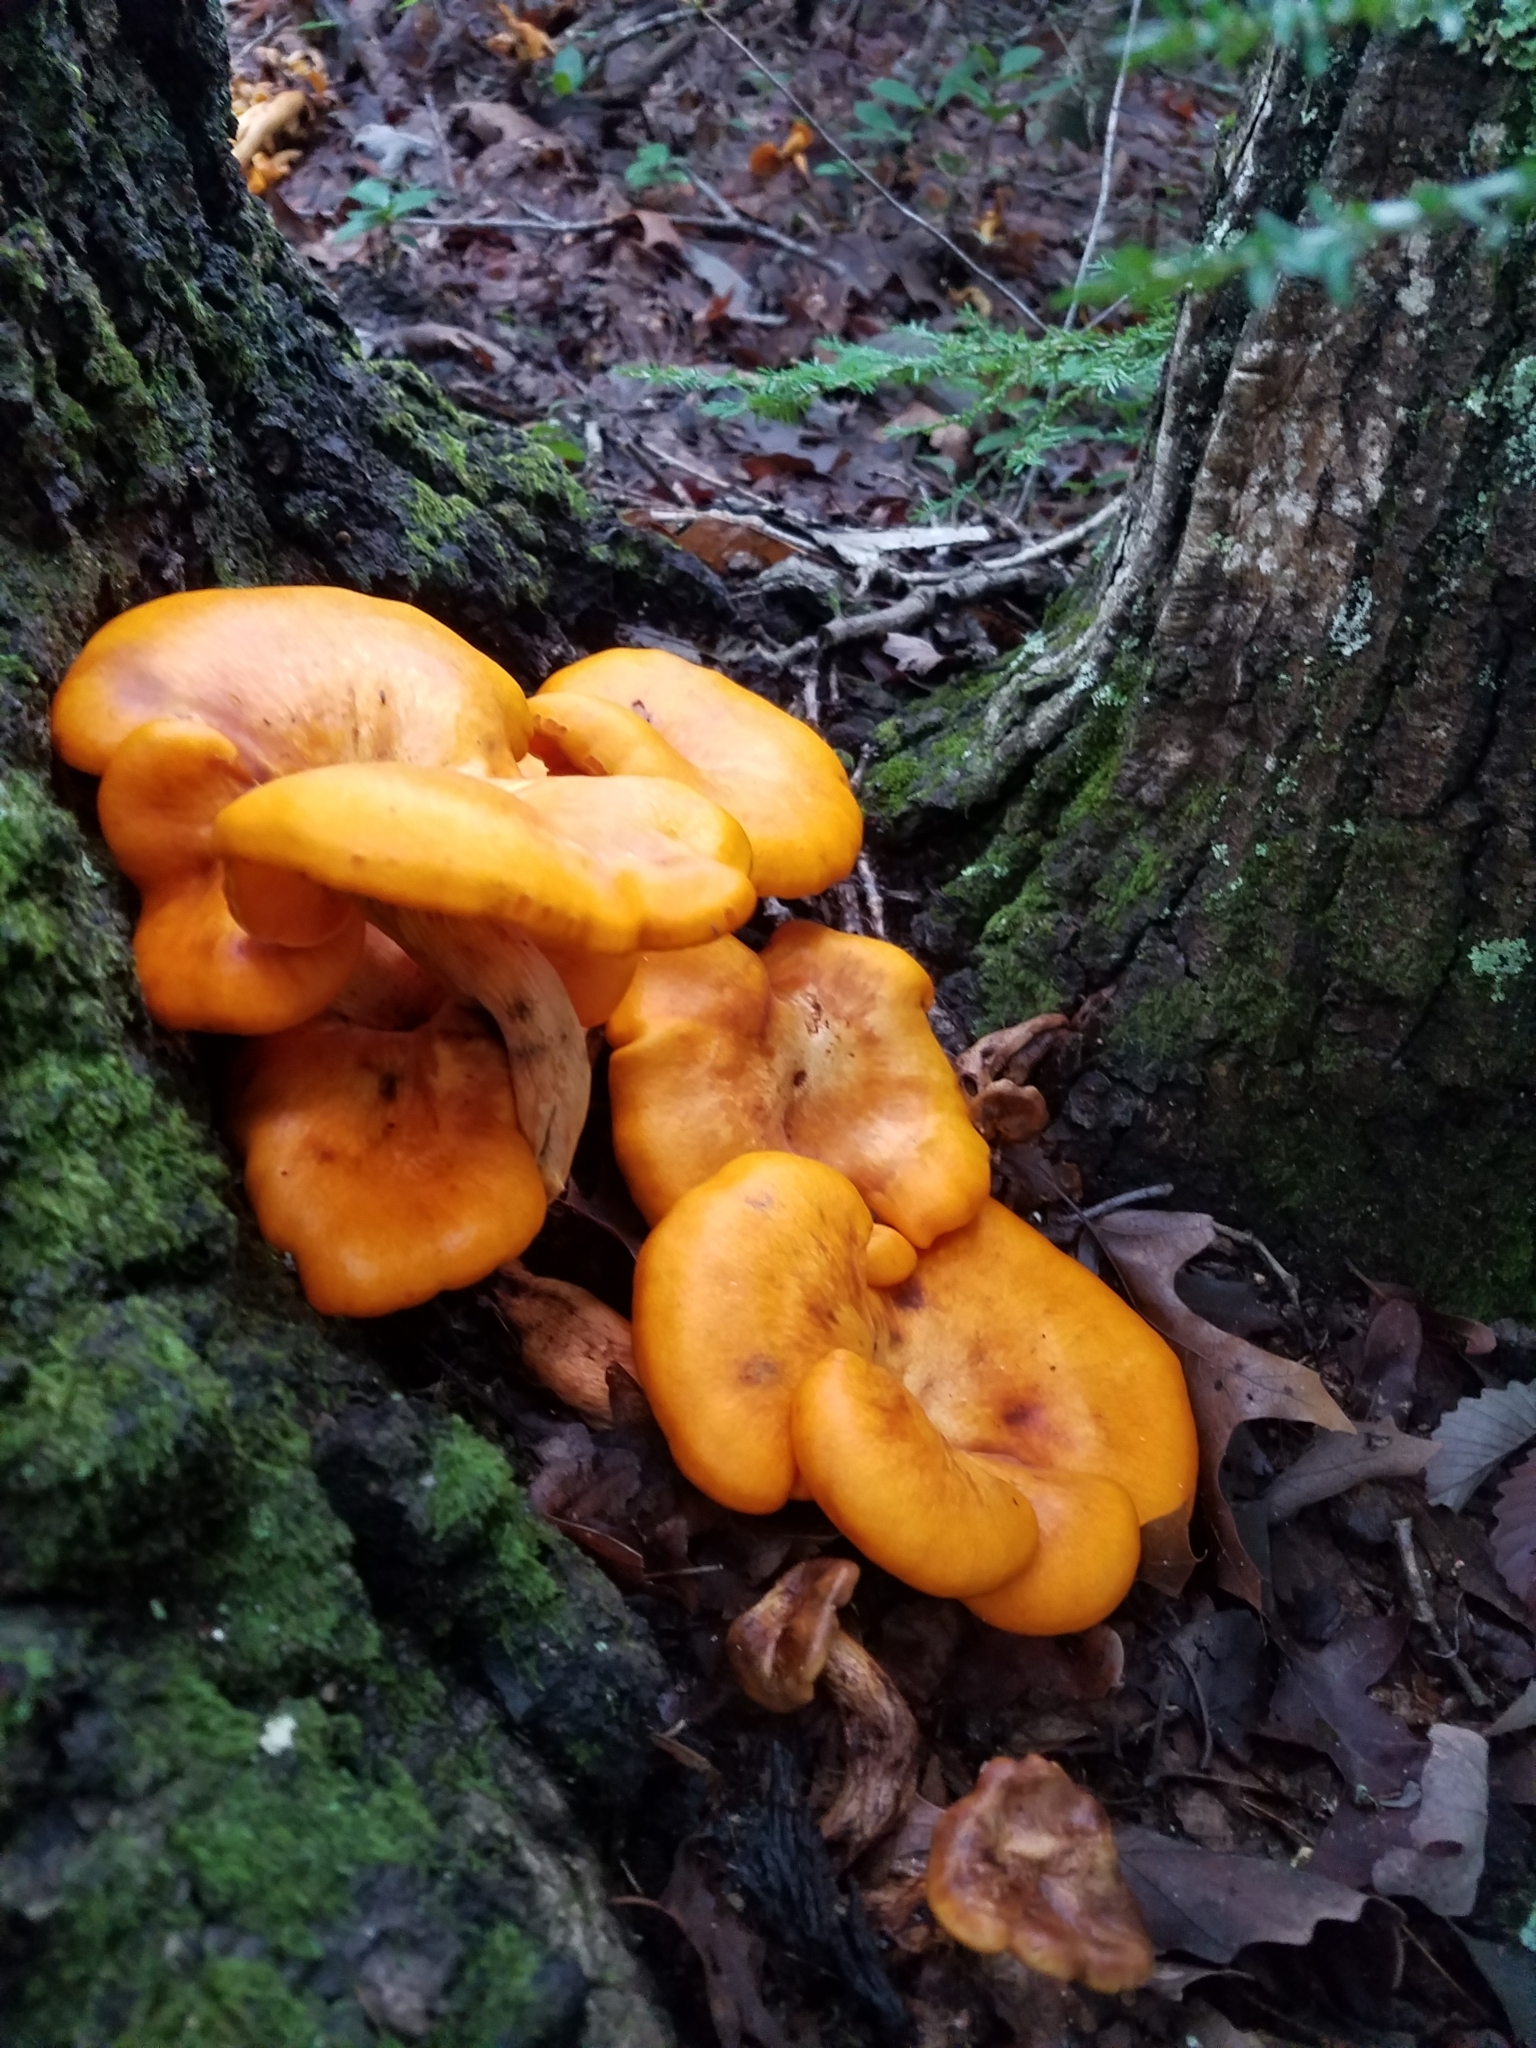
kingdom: Fungi
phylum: Basidiomycota
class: Agaricomycetes
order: Agaricales
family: Omphalotaceae
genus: Omphalotus
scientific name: Omphalotus illudens
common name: Jack o lantern
